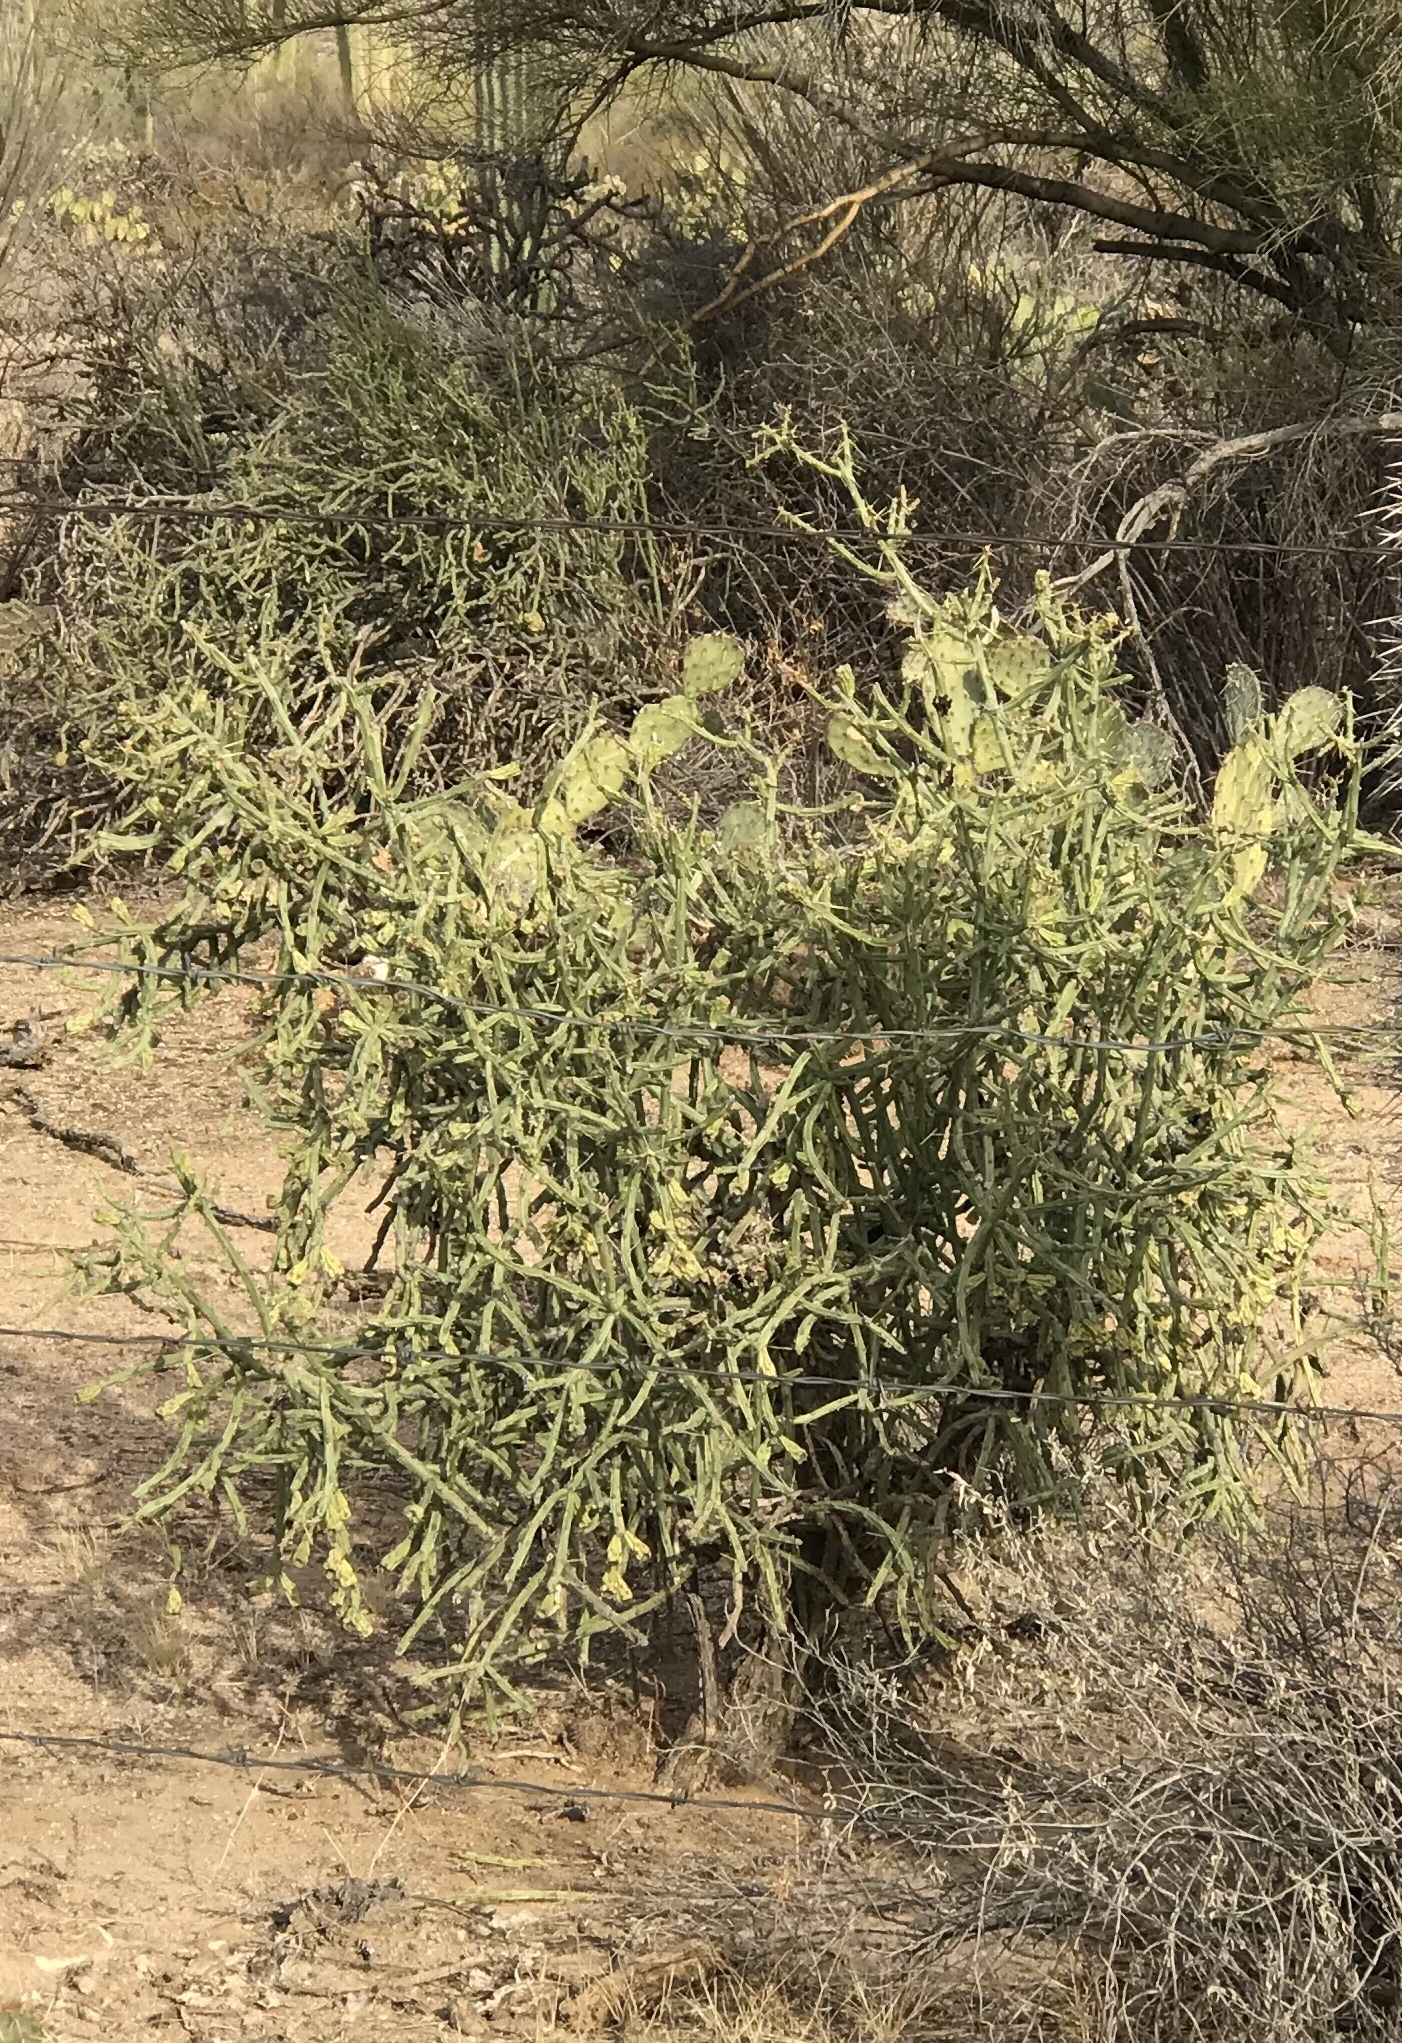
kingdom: Plantae
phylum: Tracheophyta
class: Magnoliopsida
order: Caryophyllales
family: Cactaceae
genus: Cylindropuntia
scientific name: Cylindropuntia arbuscula
